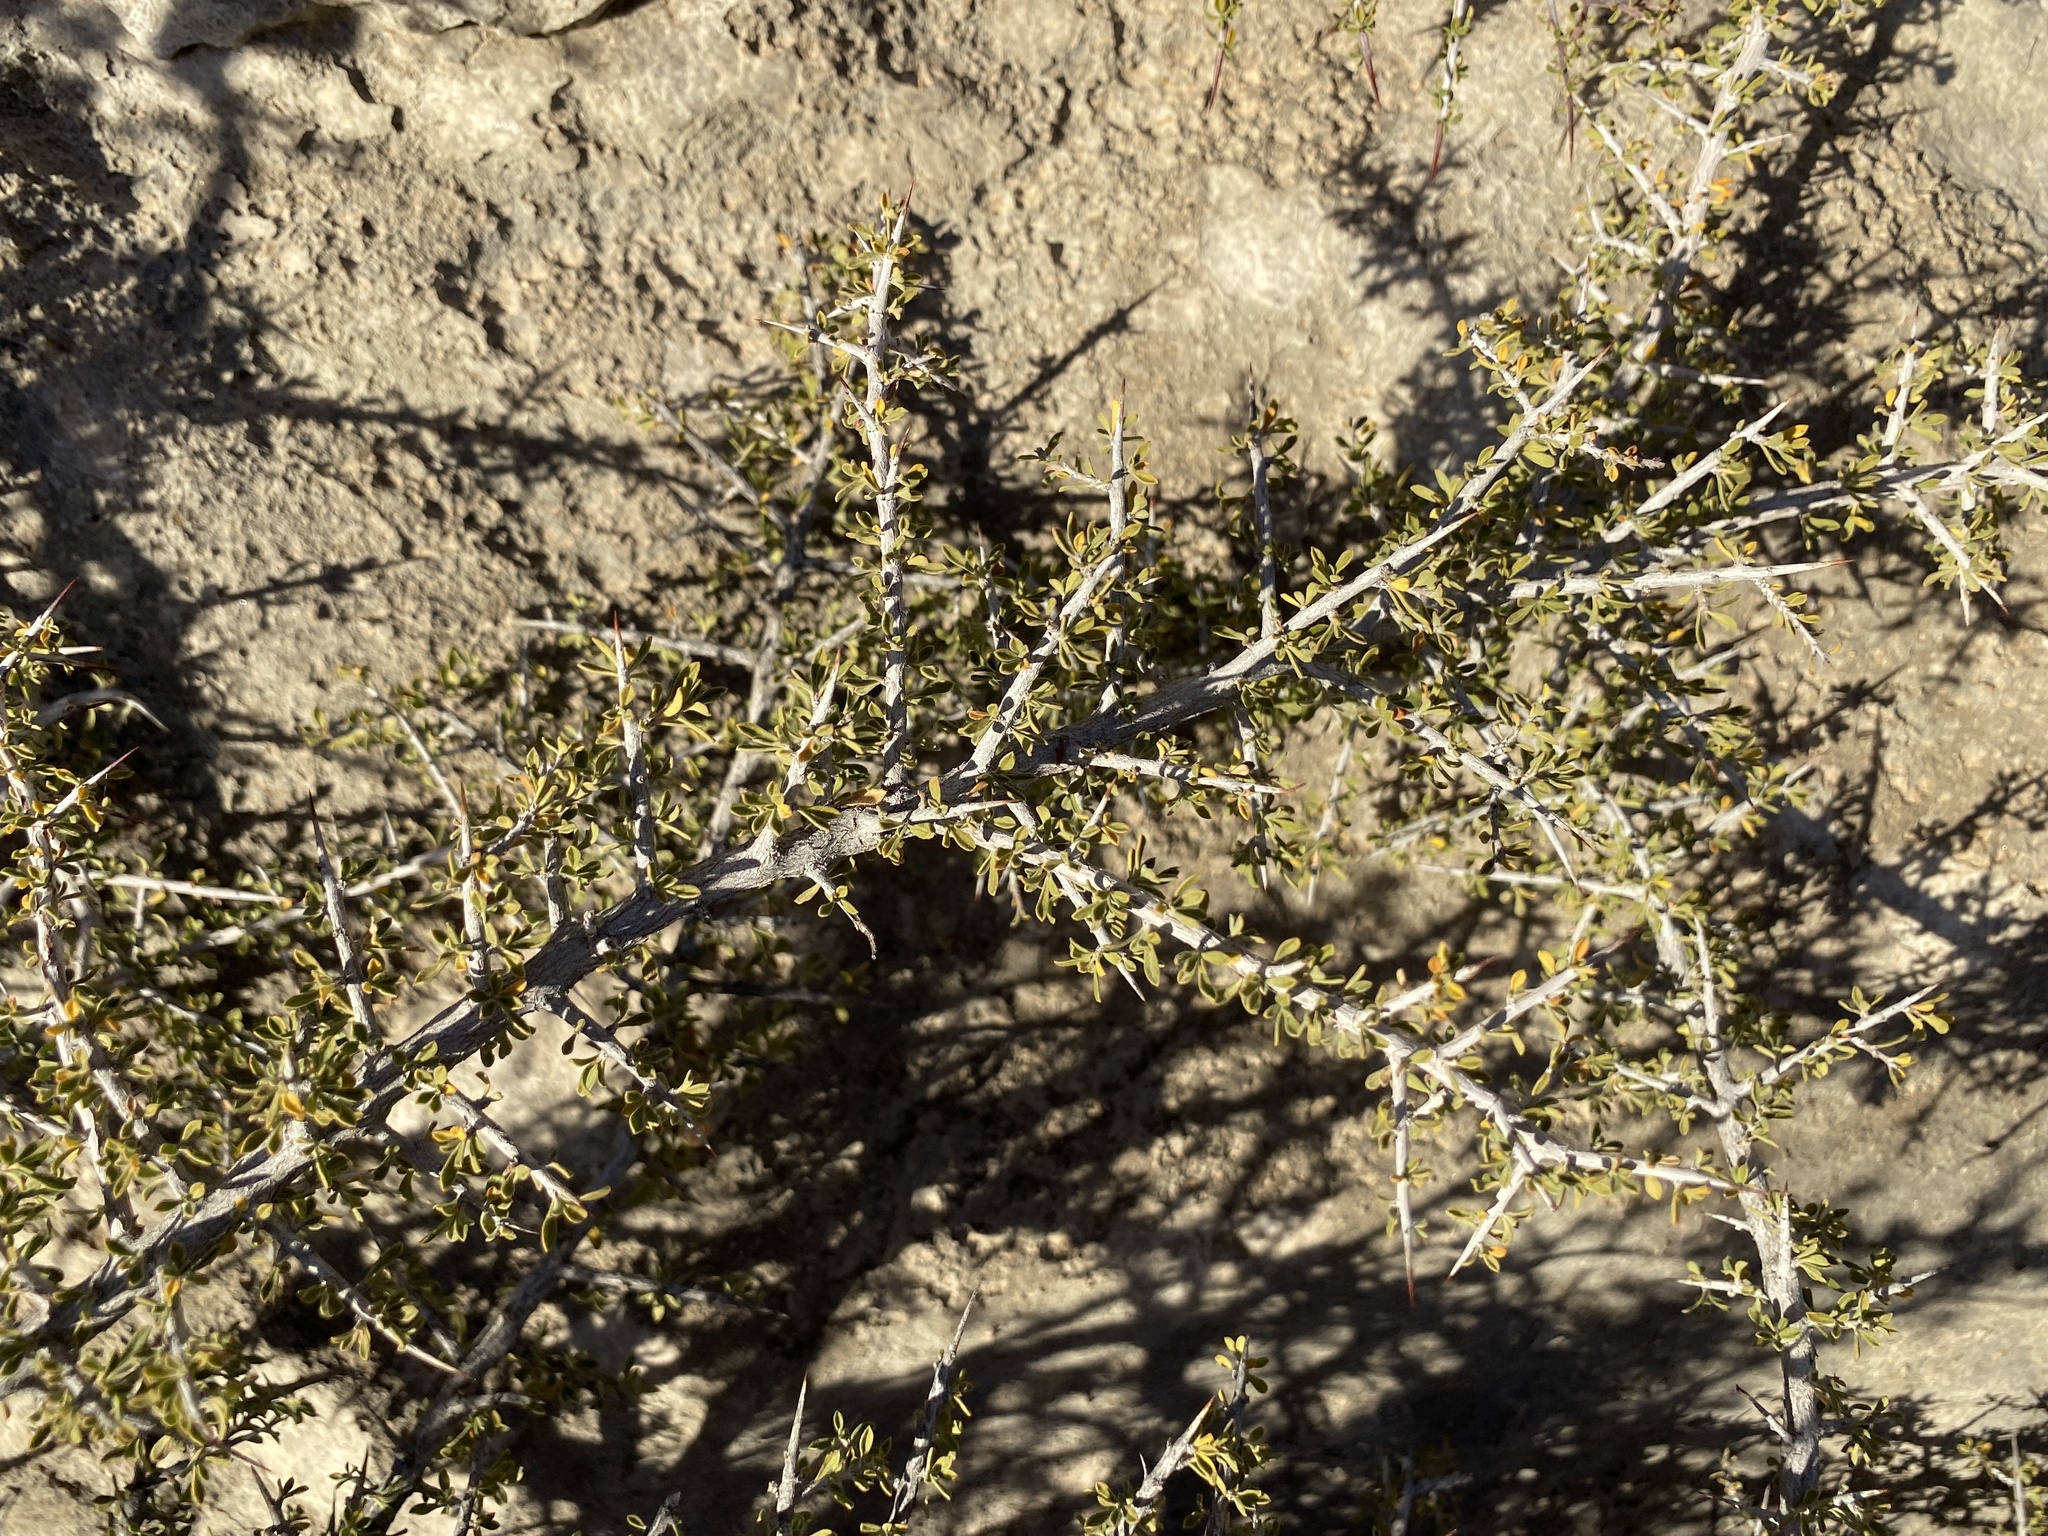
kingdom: Plantae
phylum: Tracheophyta
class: Magnoliopsida
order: Rosales
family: Rhamnaceae
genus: Condalia
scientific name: Condalia warnockii
